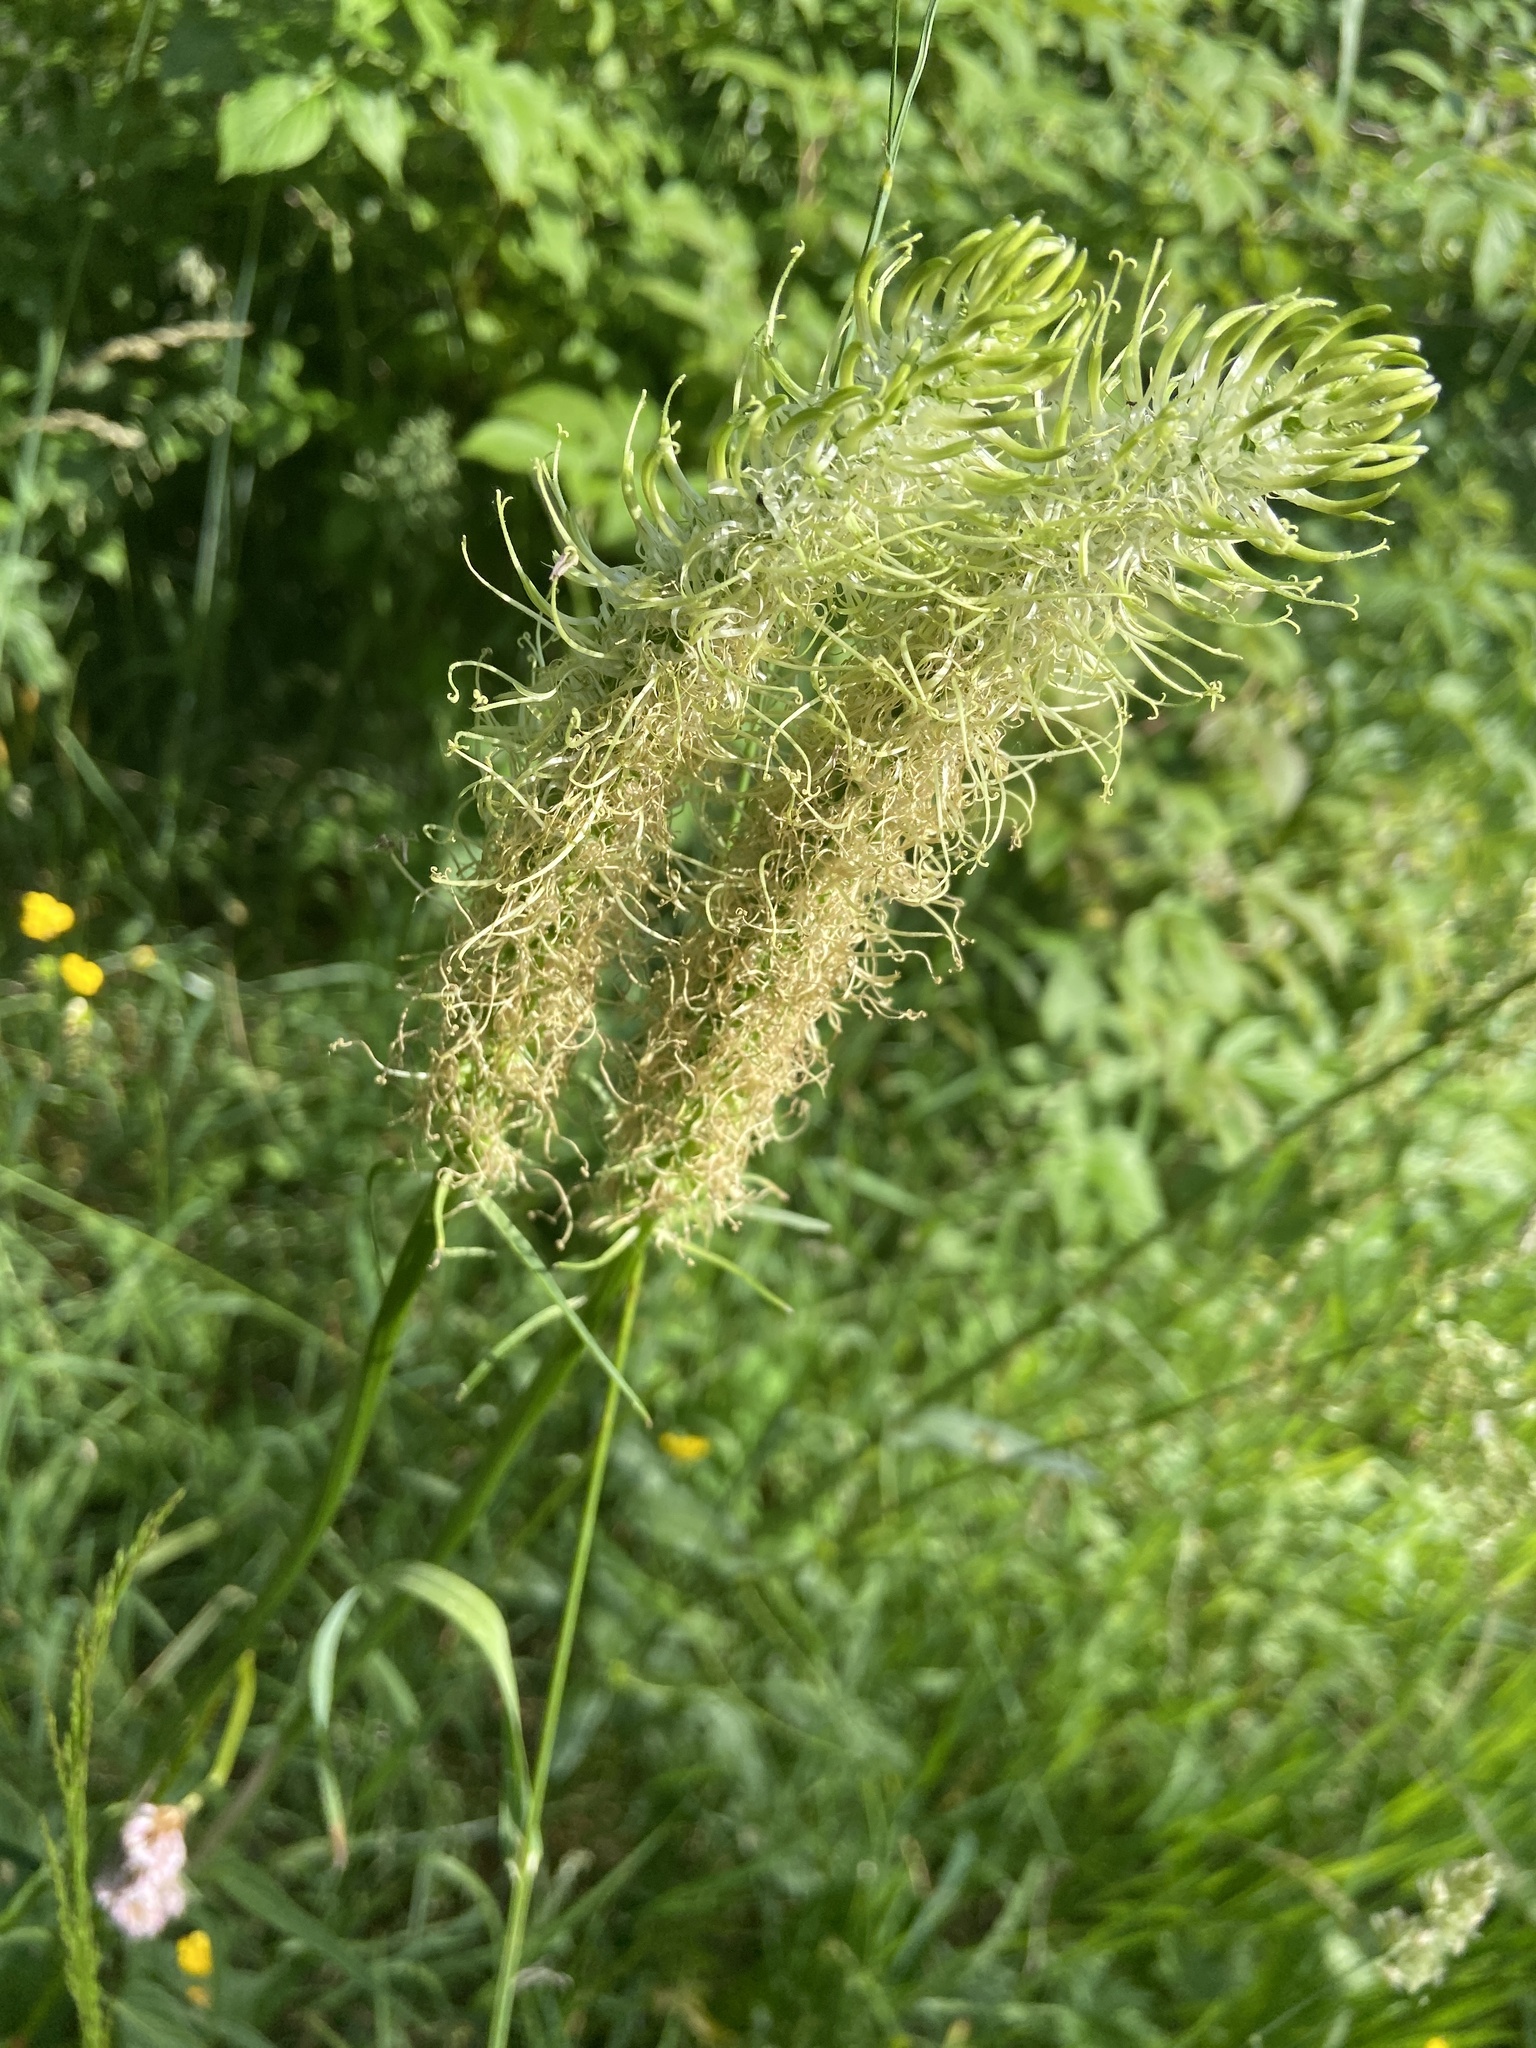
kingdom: Plantae
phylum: Tracheophyta
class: Magnoliopsida
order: Asterales
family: Campanulaceae
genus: Phyteuma
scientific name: Phyteuma spicatum
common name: Spiked rampion
